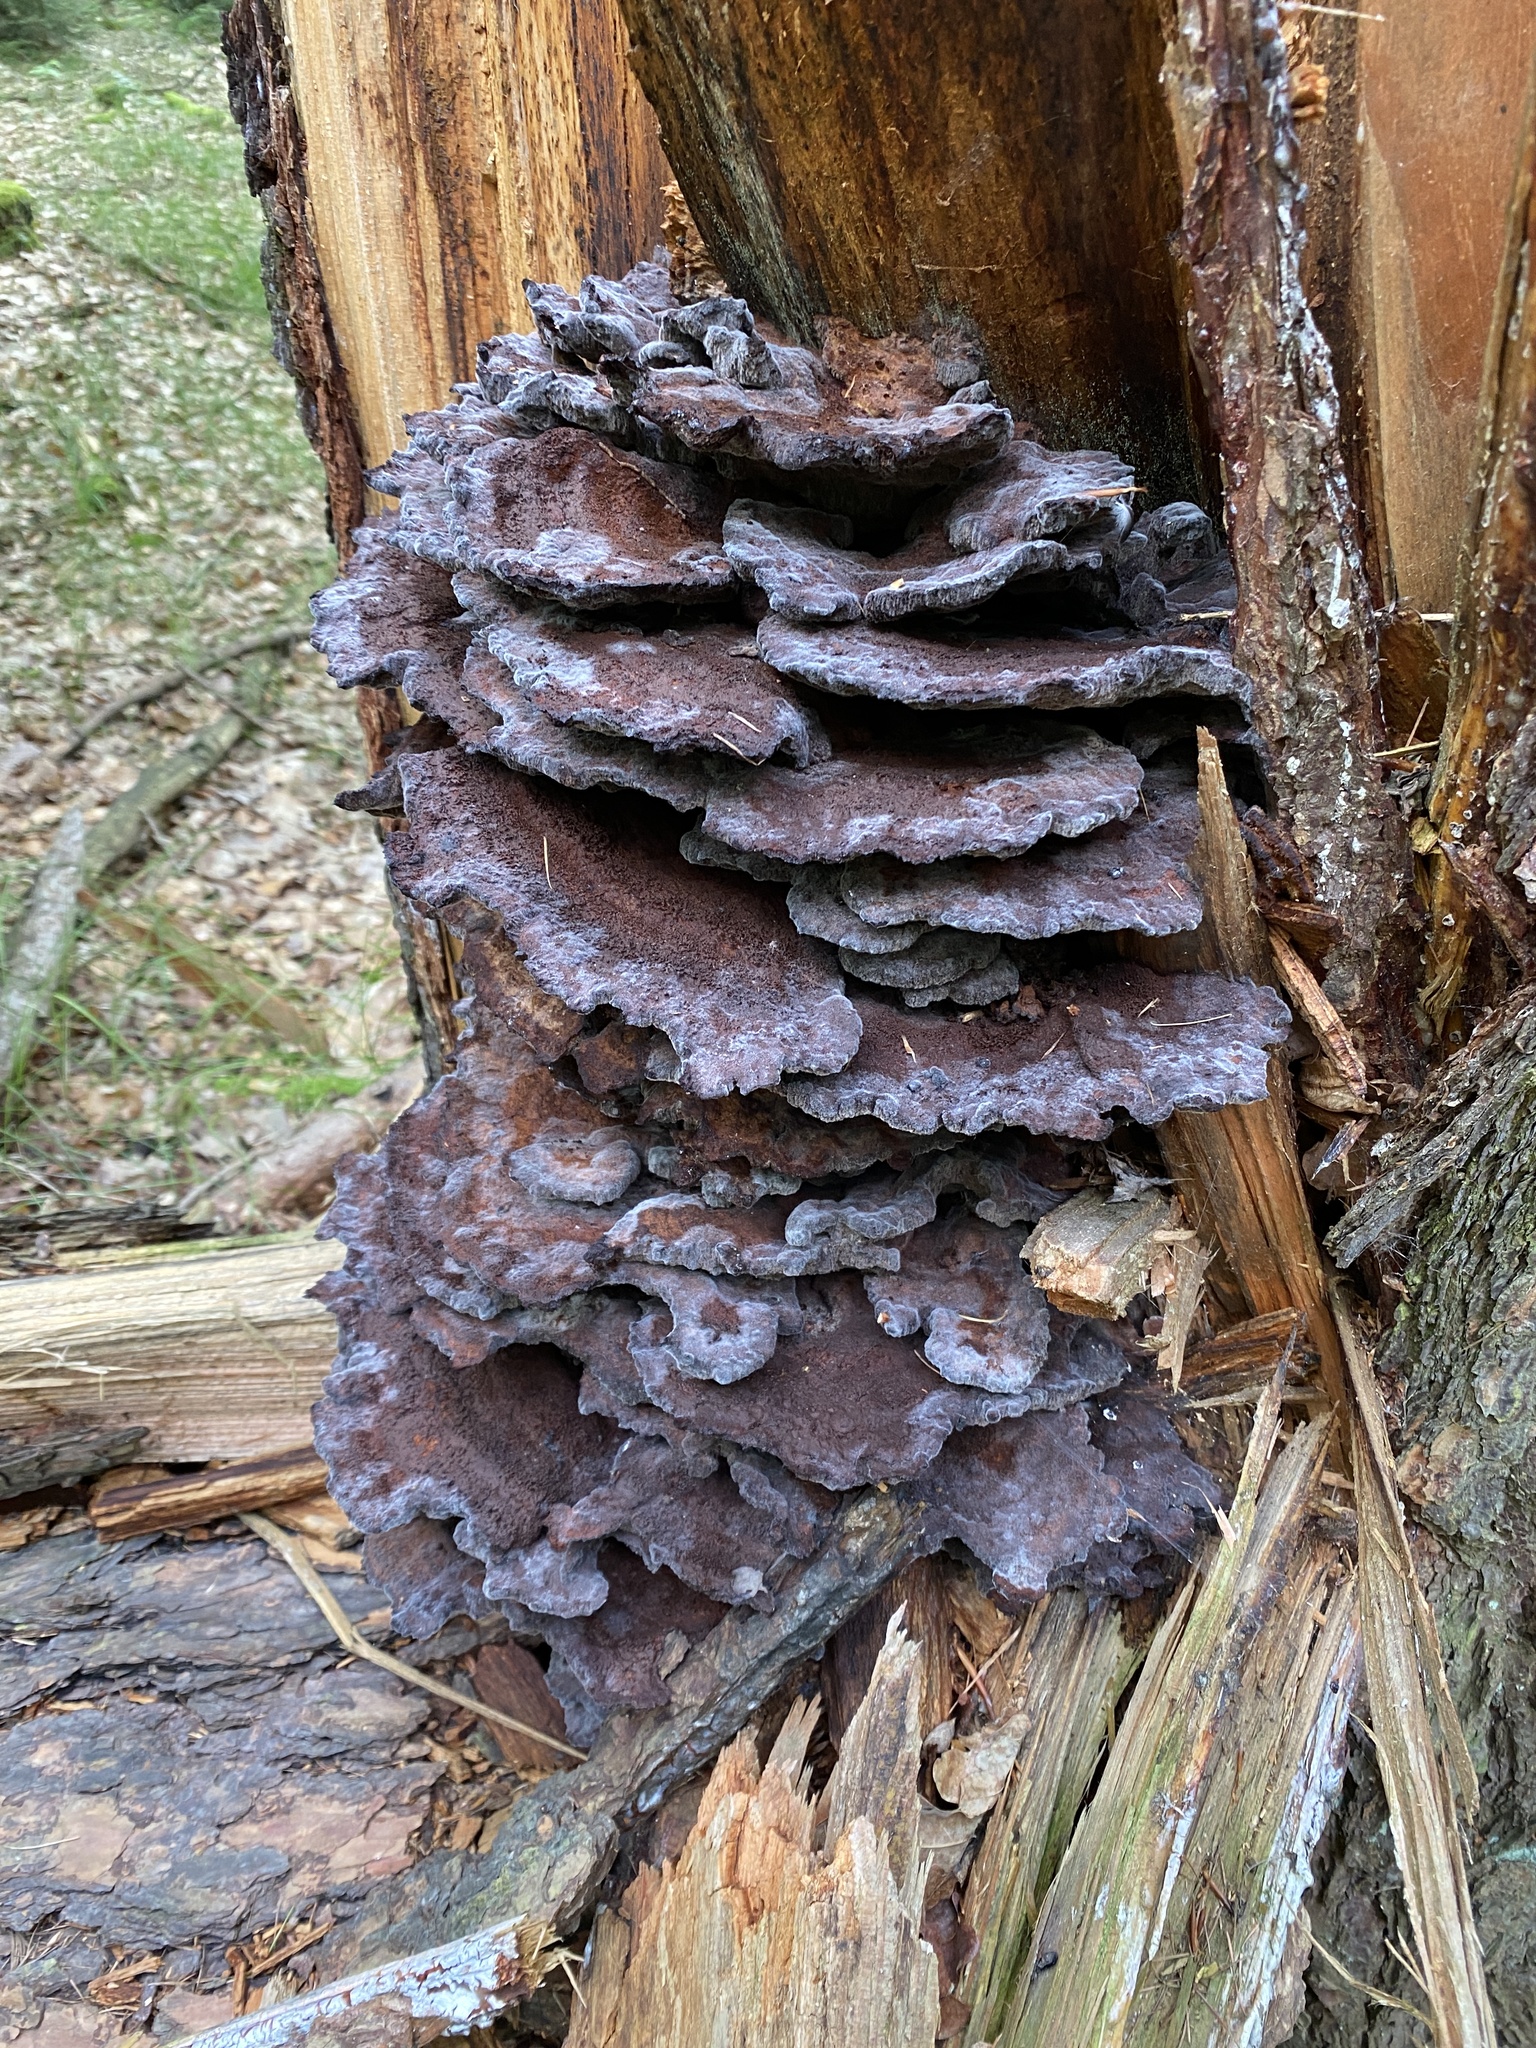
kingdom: Fungi
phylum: Basidiomycota
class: Agaricomycetes
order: Polyporales
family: Laetiporaceae
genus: Phaeolus
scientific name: Phaeolus schweinitzii
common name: Dyer's mazegill
